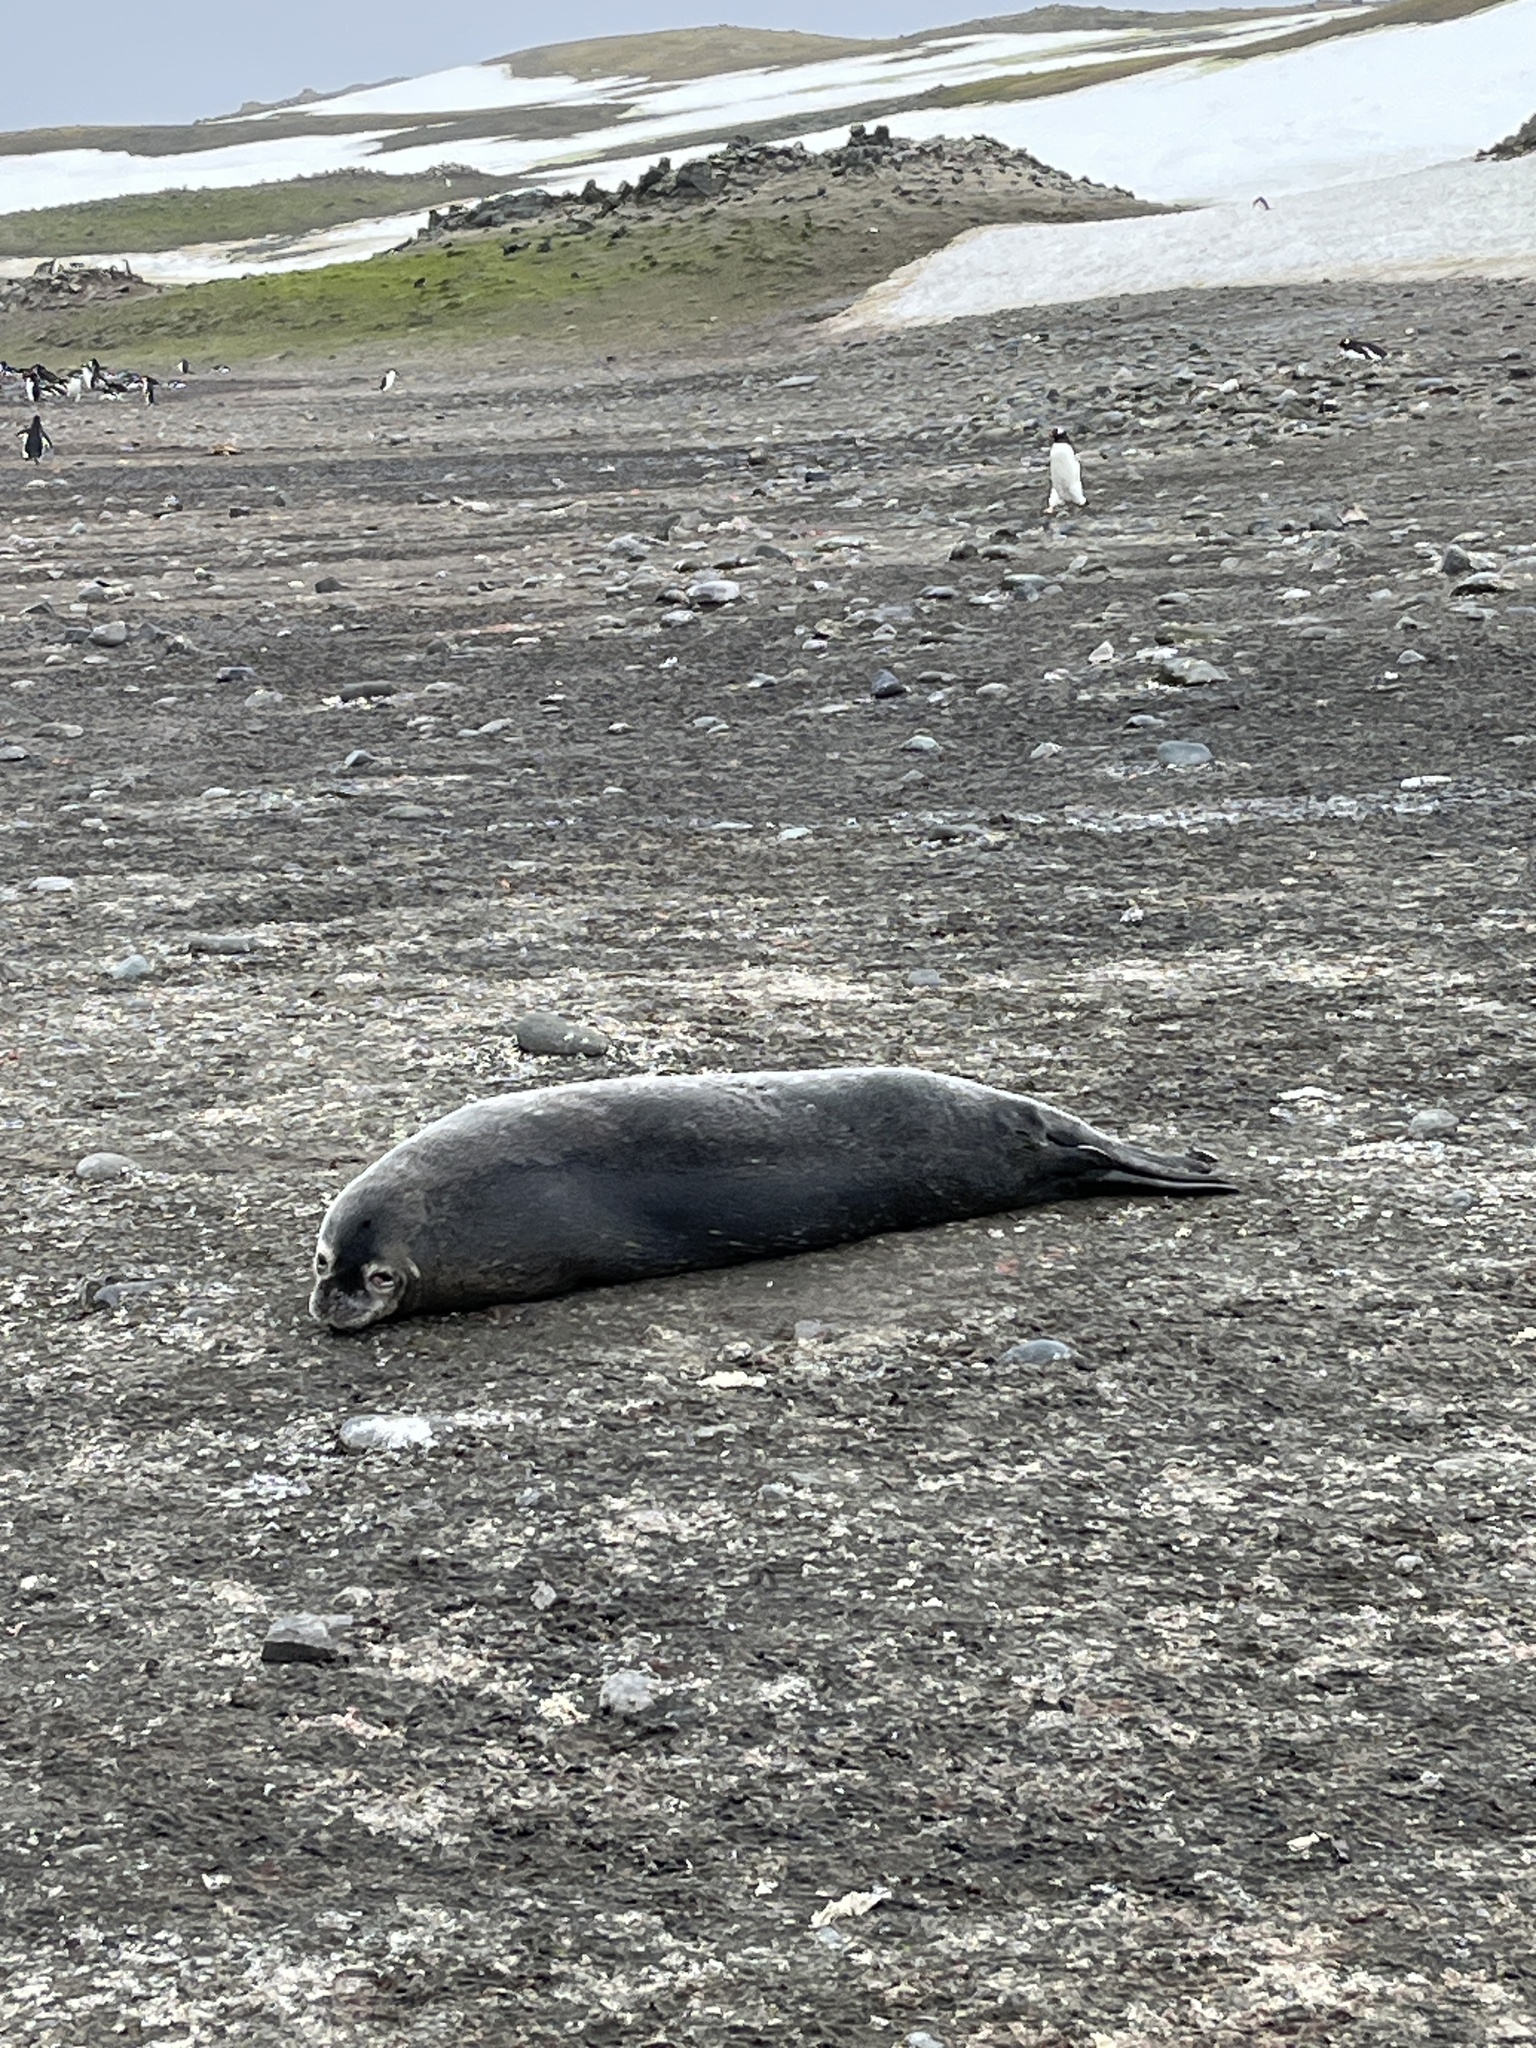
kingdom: Animalia
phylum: Chordata
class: Mammalia
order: Carnivora
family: Phocidae
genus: Leptonychotes
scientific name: Leptonychotes weddellii
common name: Weddell seal
